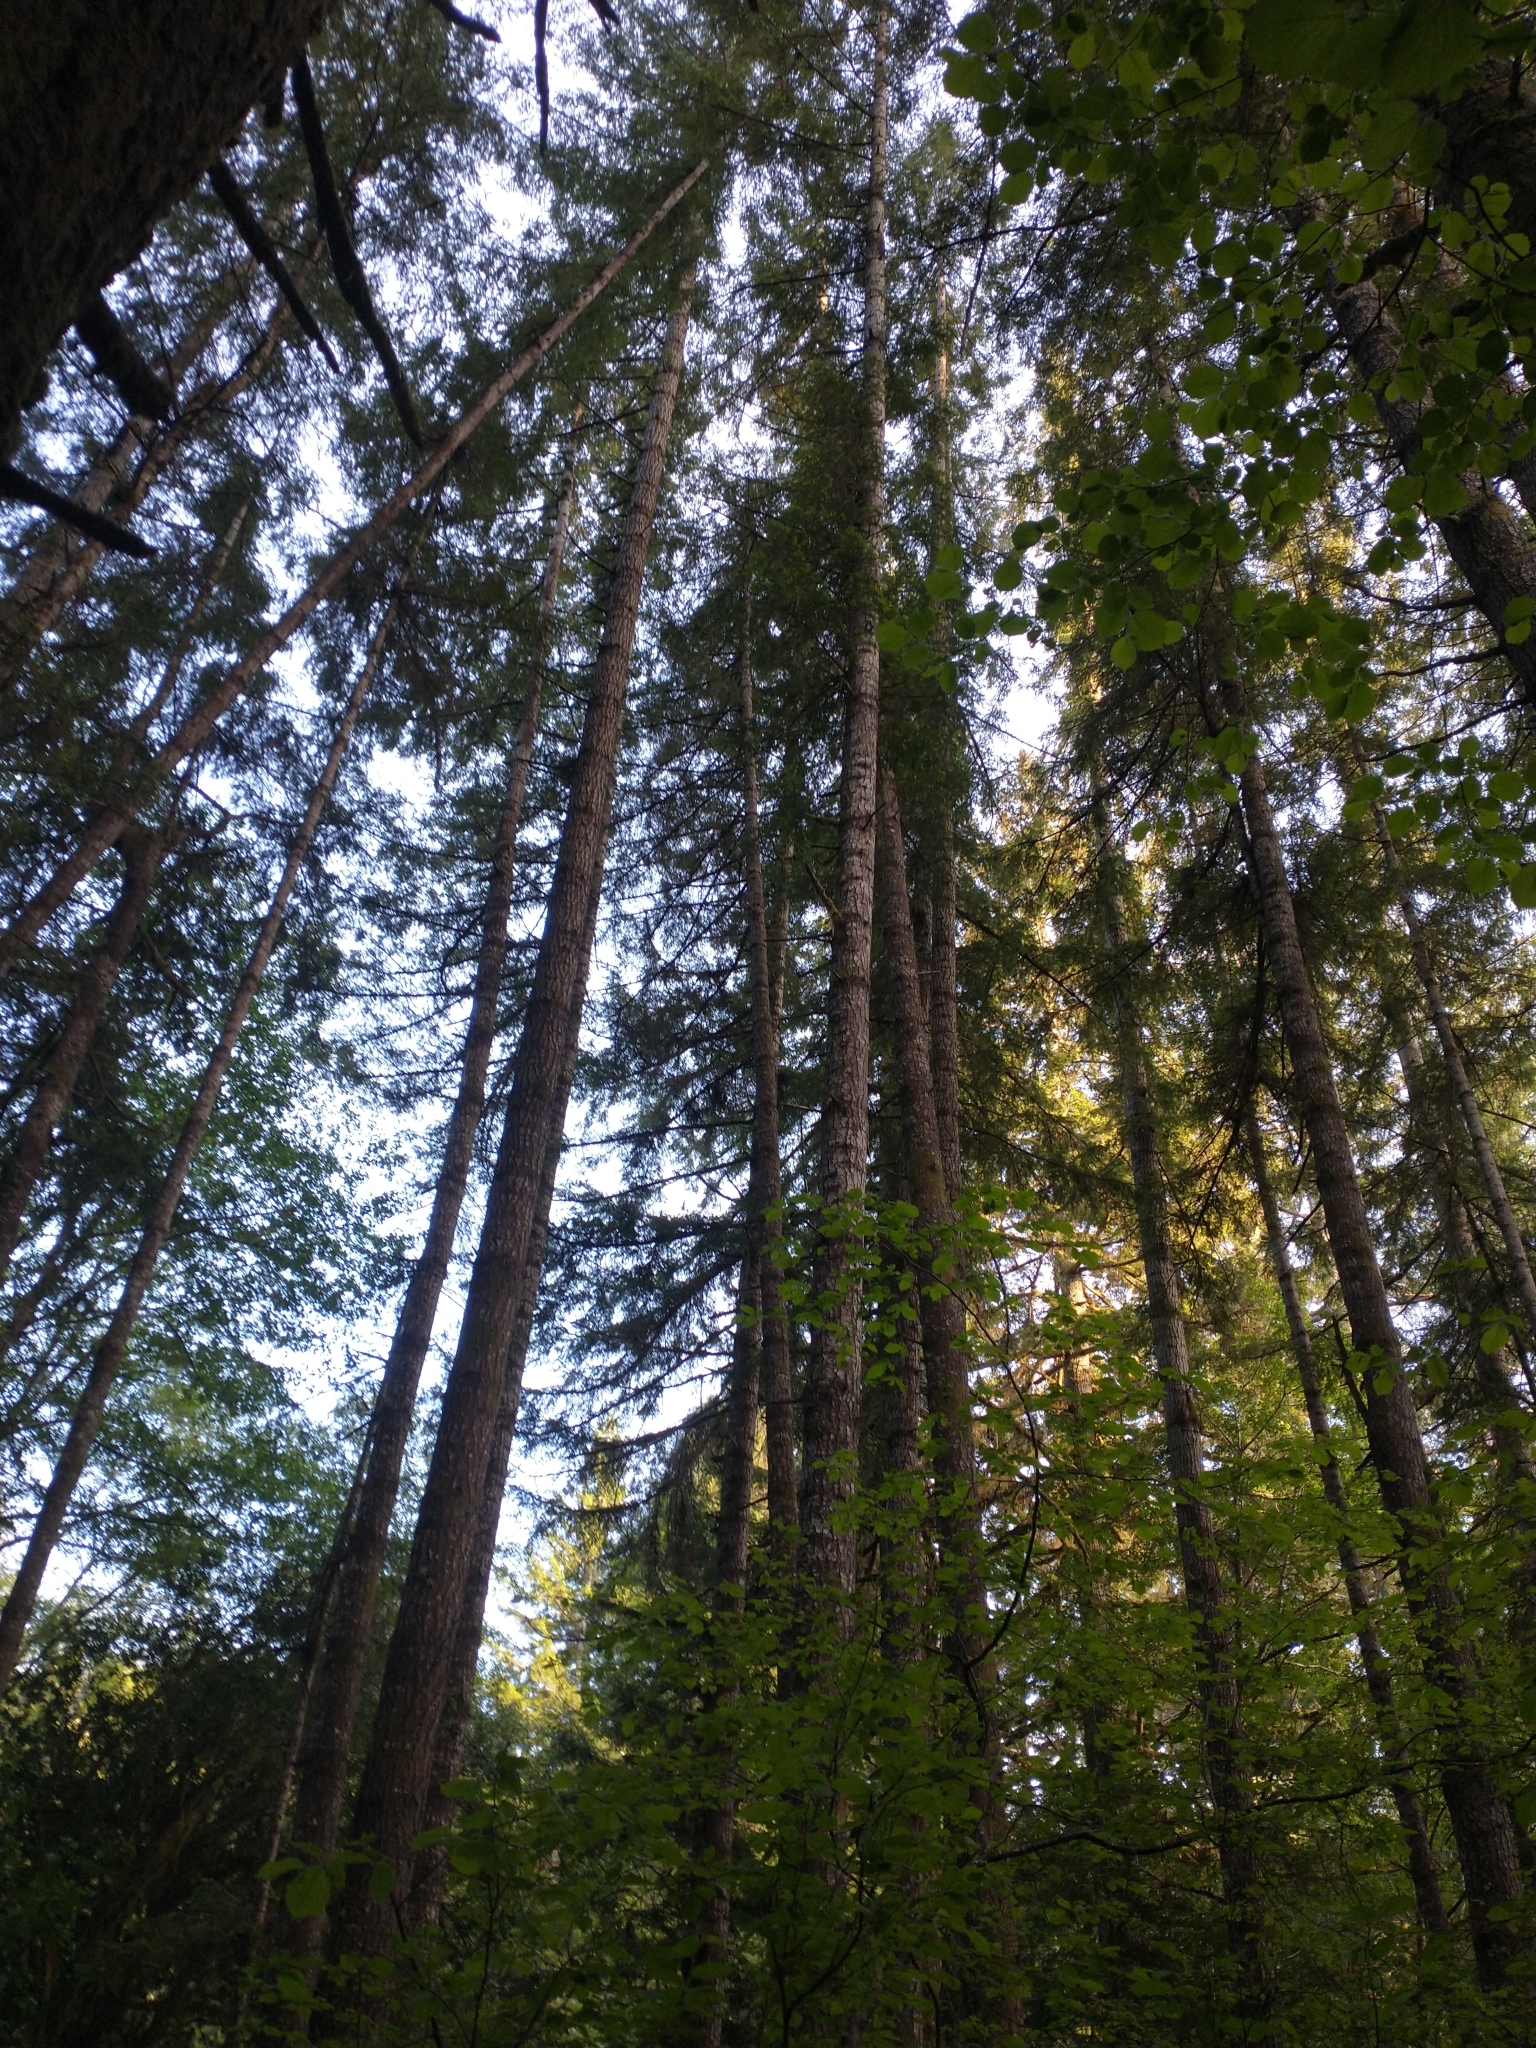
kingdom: Plantae
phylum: Tracheophyta
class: Pinopsida
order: Pinales
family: Pinaceae
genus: Pseudotsuga
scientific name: Pseudotsuga menziesii
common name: Douglas fir
